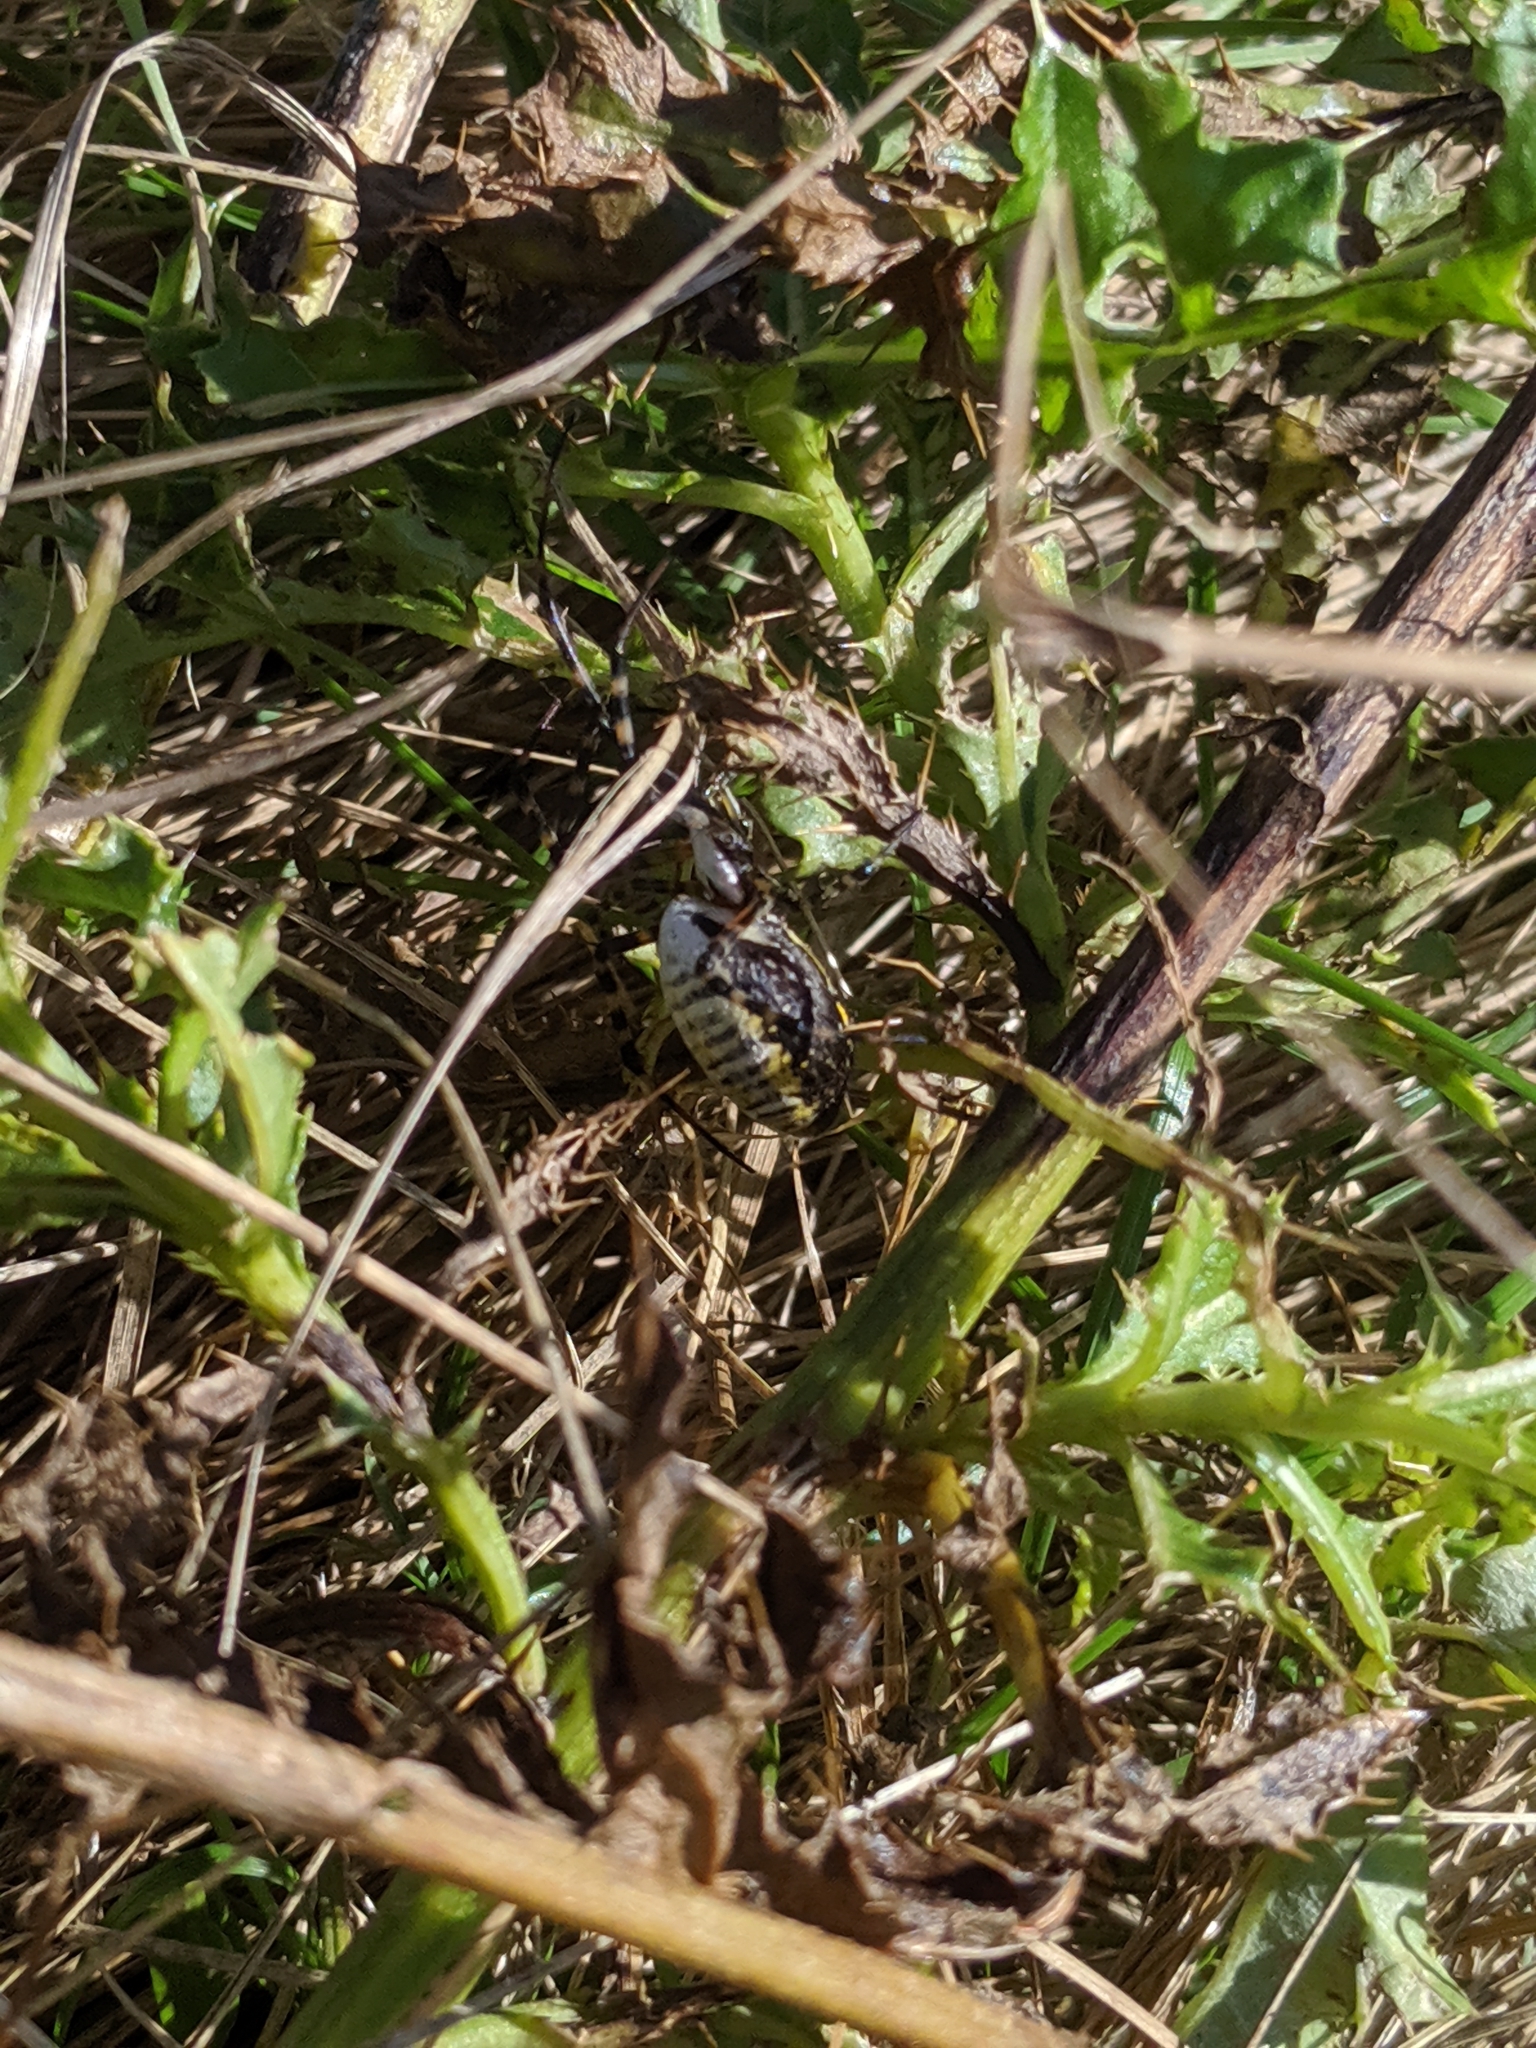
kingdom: Animalia
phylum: Arthropoda
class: Arachnida
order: Araneae
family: Araneidae
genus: Argiope
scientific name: Argiope trifasciata
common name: Banded garden spider
